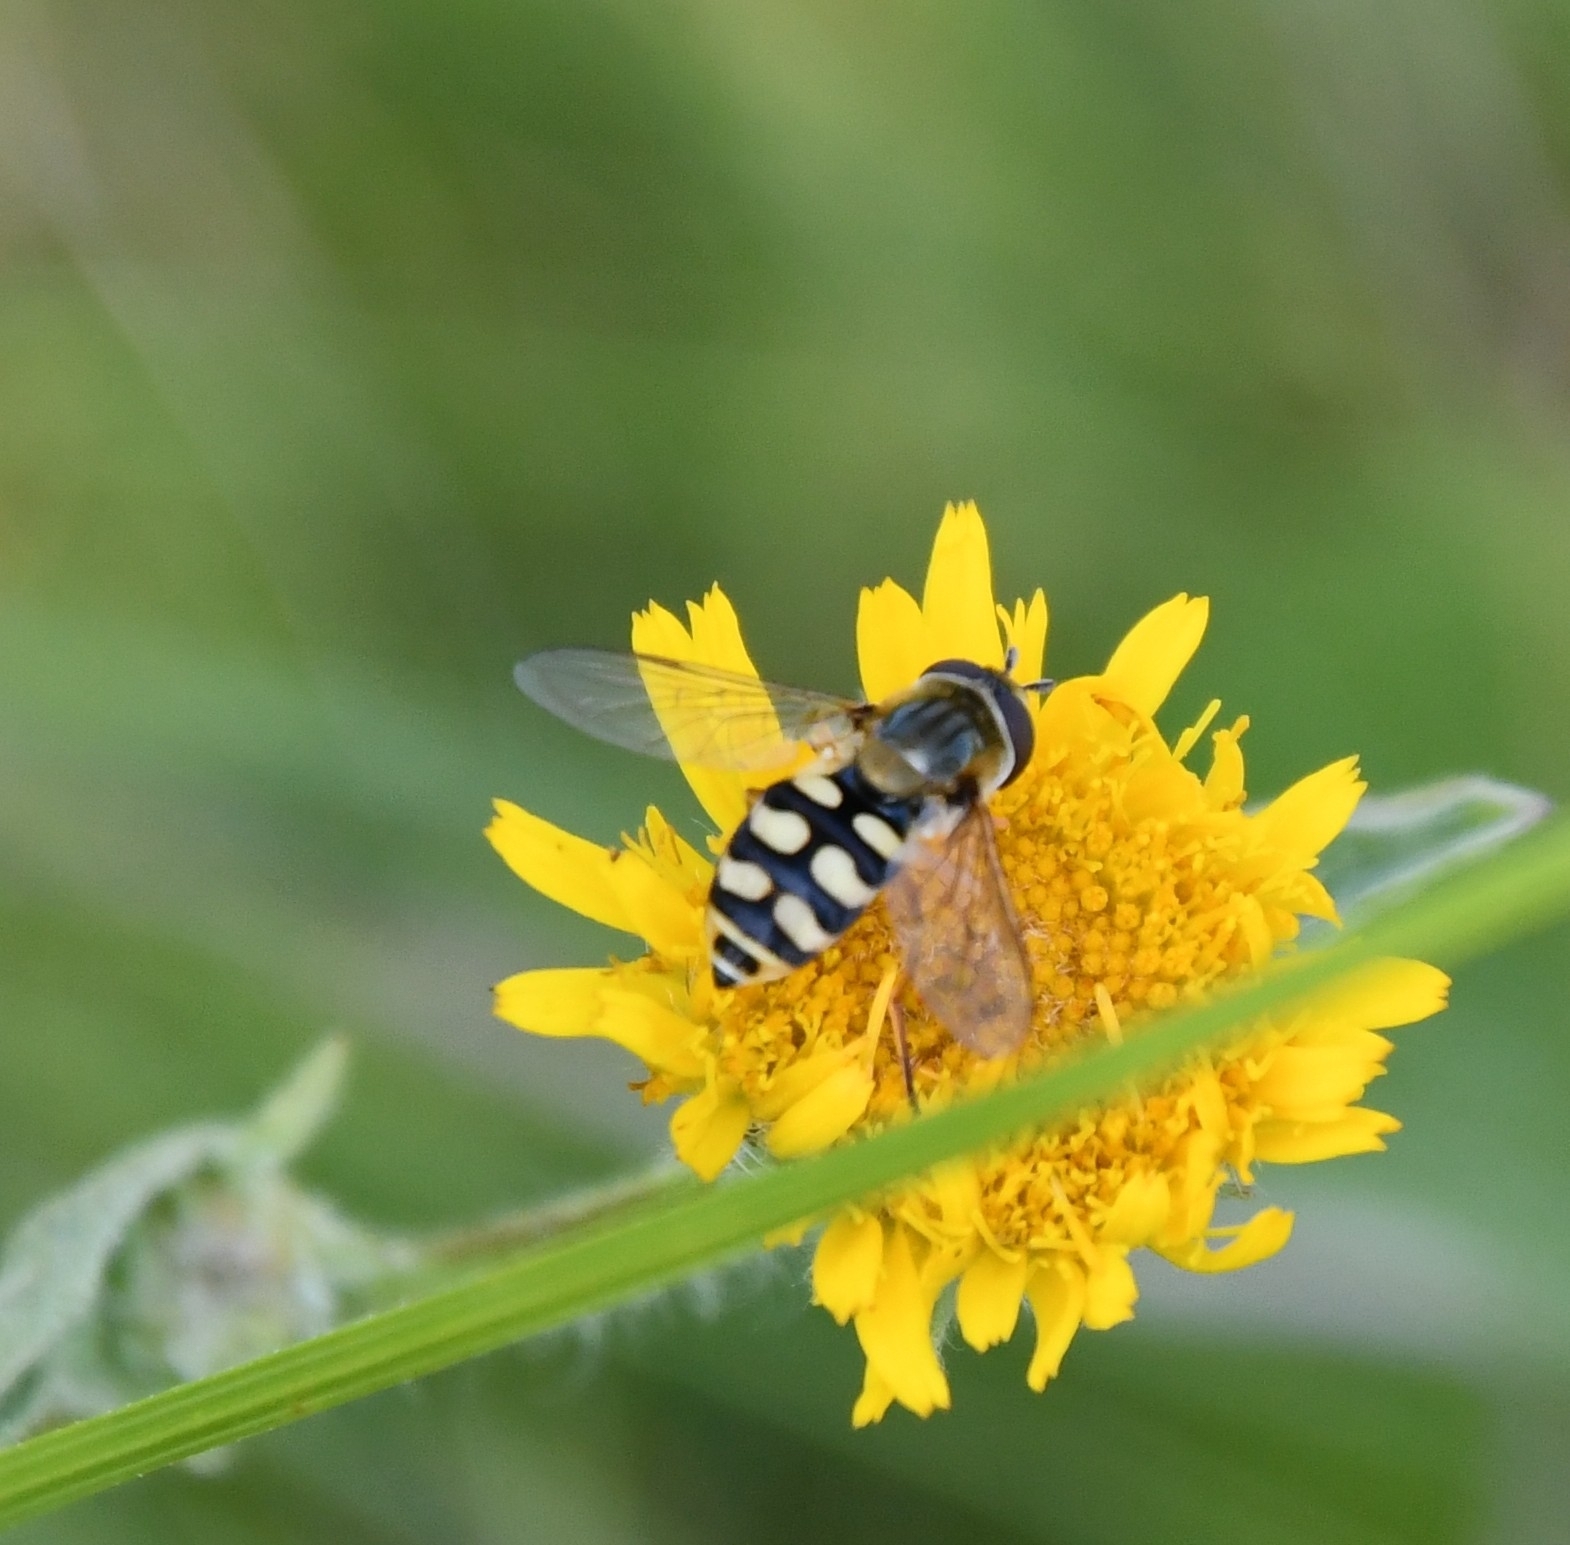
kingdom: Animalia
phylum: Arthropoda
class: Insecta
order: Diptera
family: Syrphidae
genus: Eupeodes
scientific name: Eupeodes corollae
